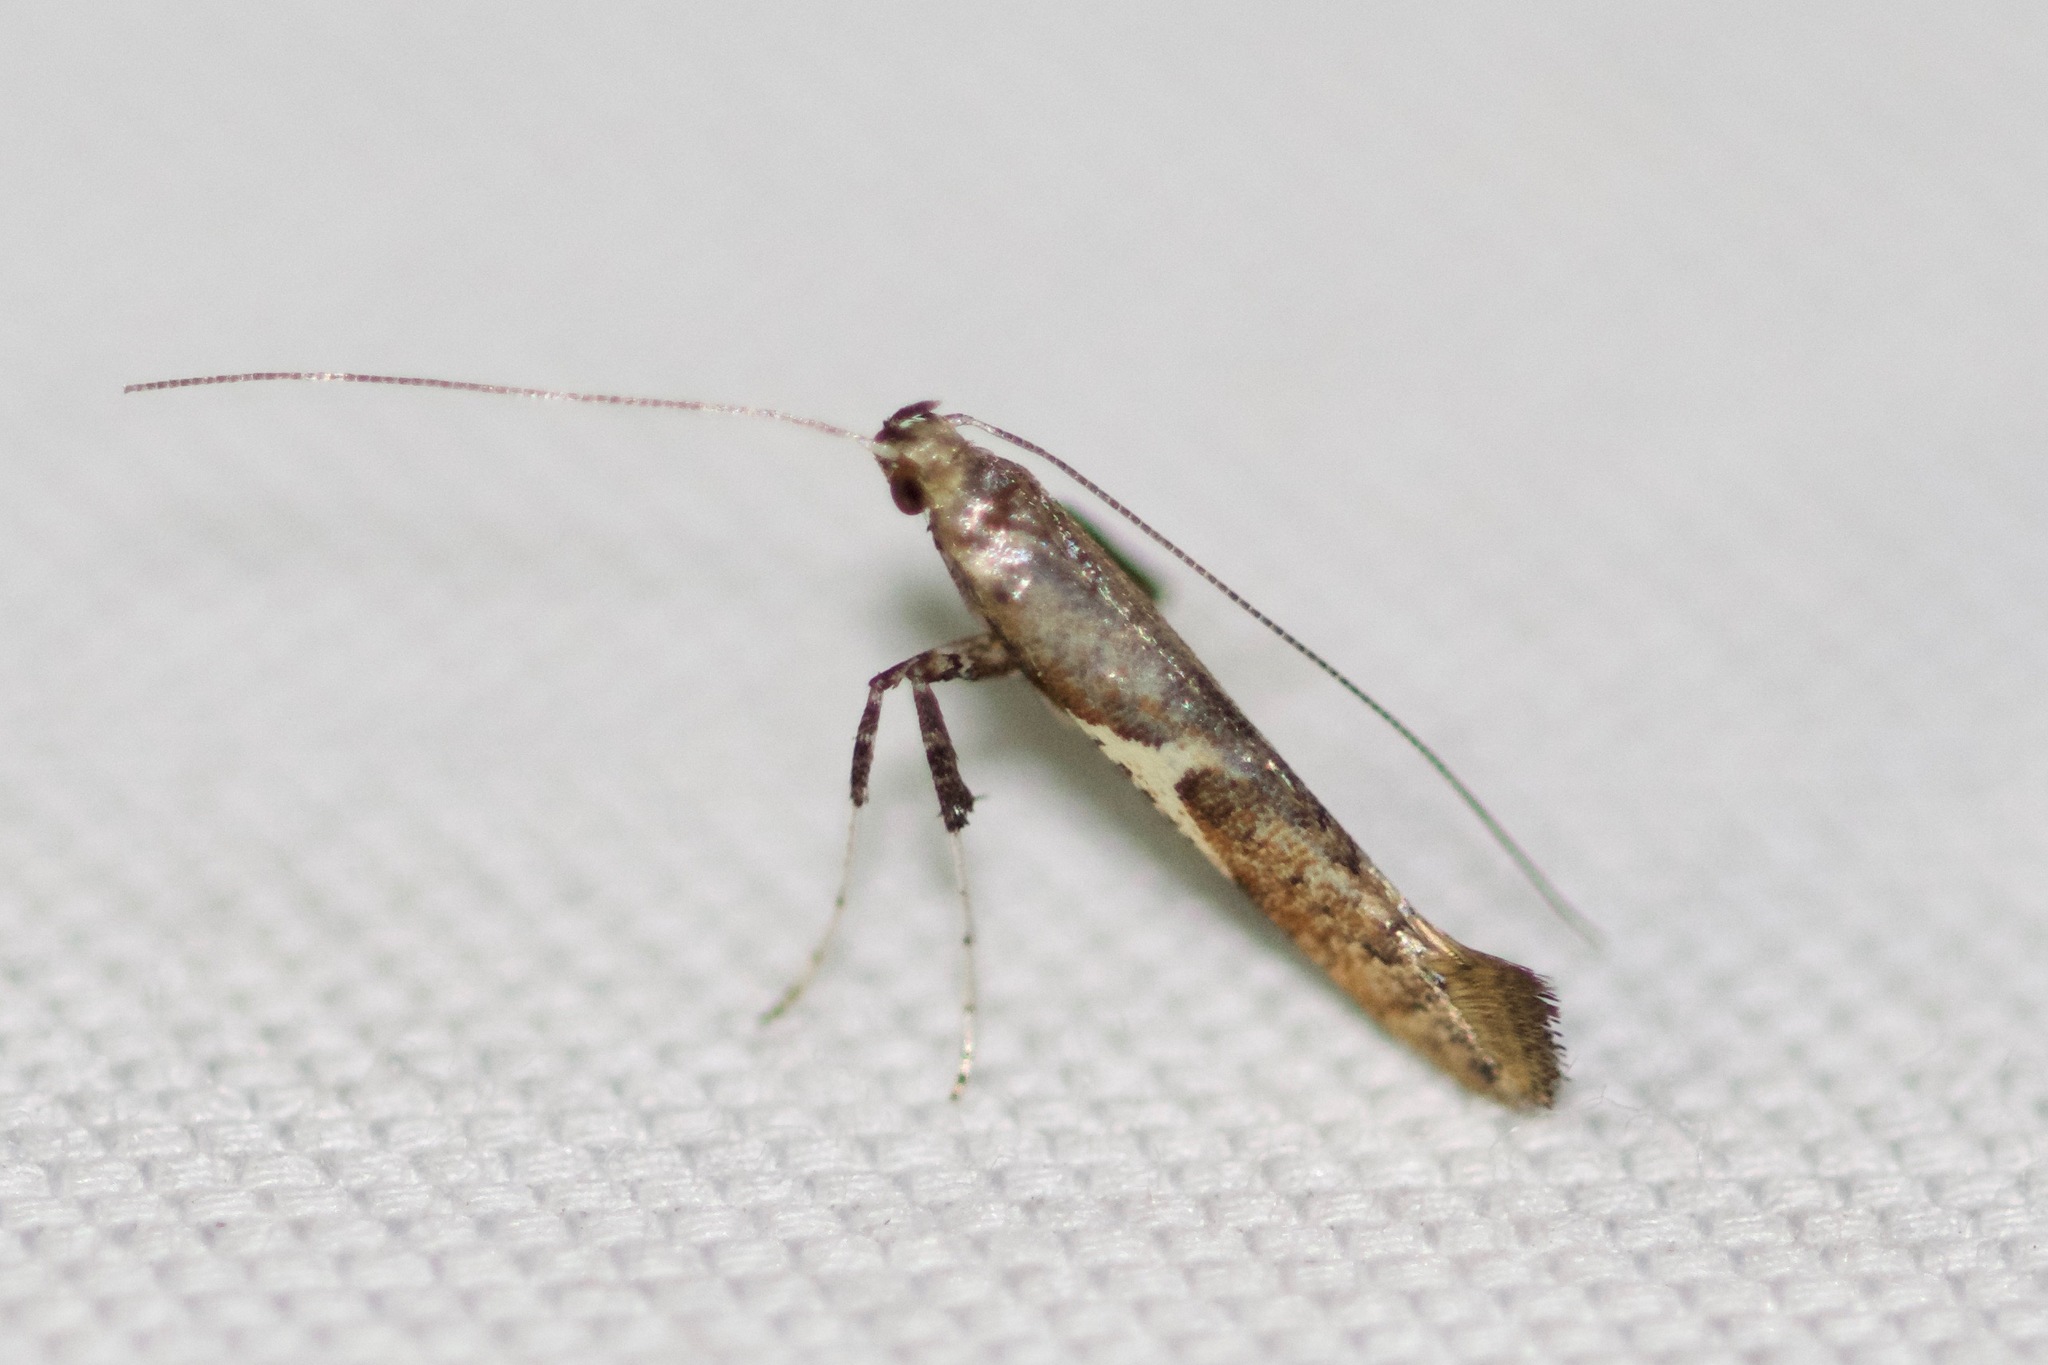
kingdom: Animalia
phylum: Arthropoda
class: Insecta
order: Lepidoptera
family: Gracillariidae
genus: Caloptilia
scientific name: Caloptilia stigmatella
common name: White-triangle slender
